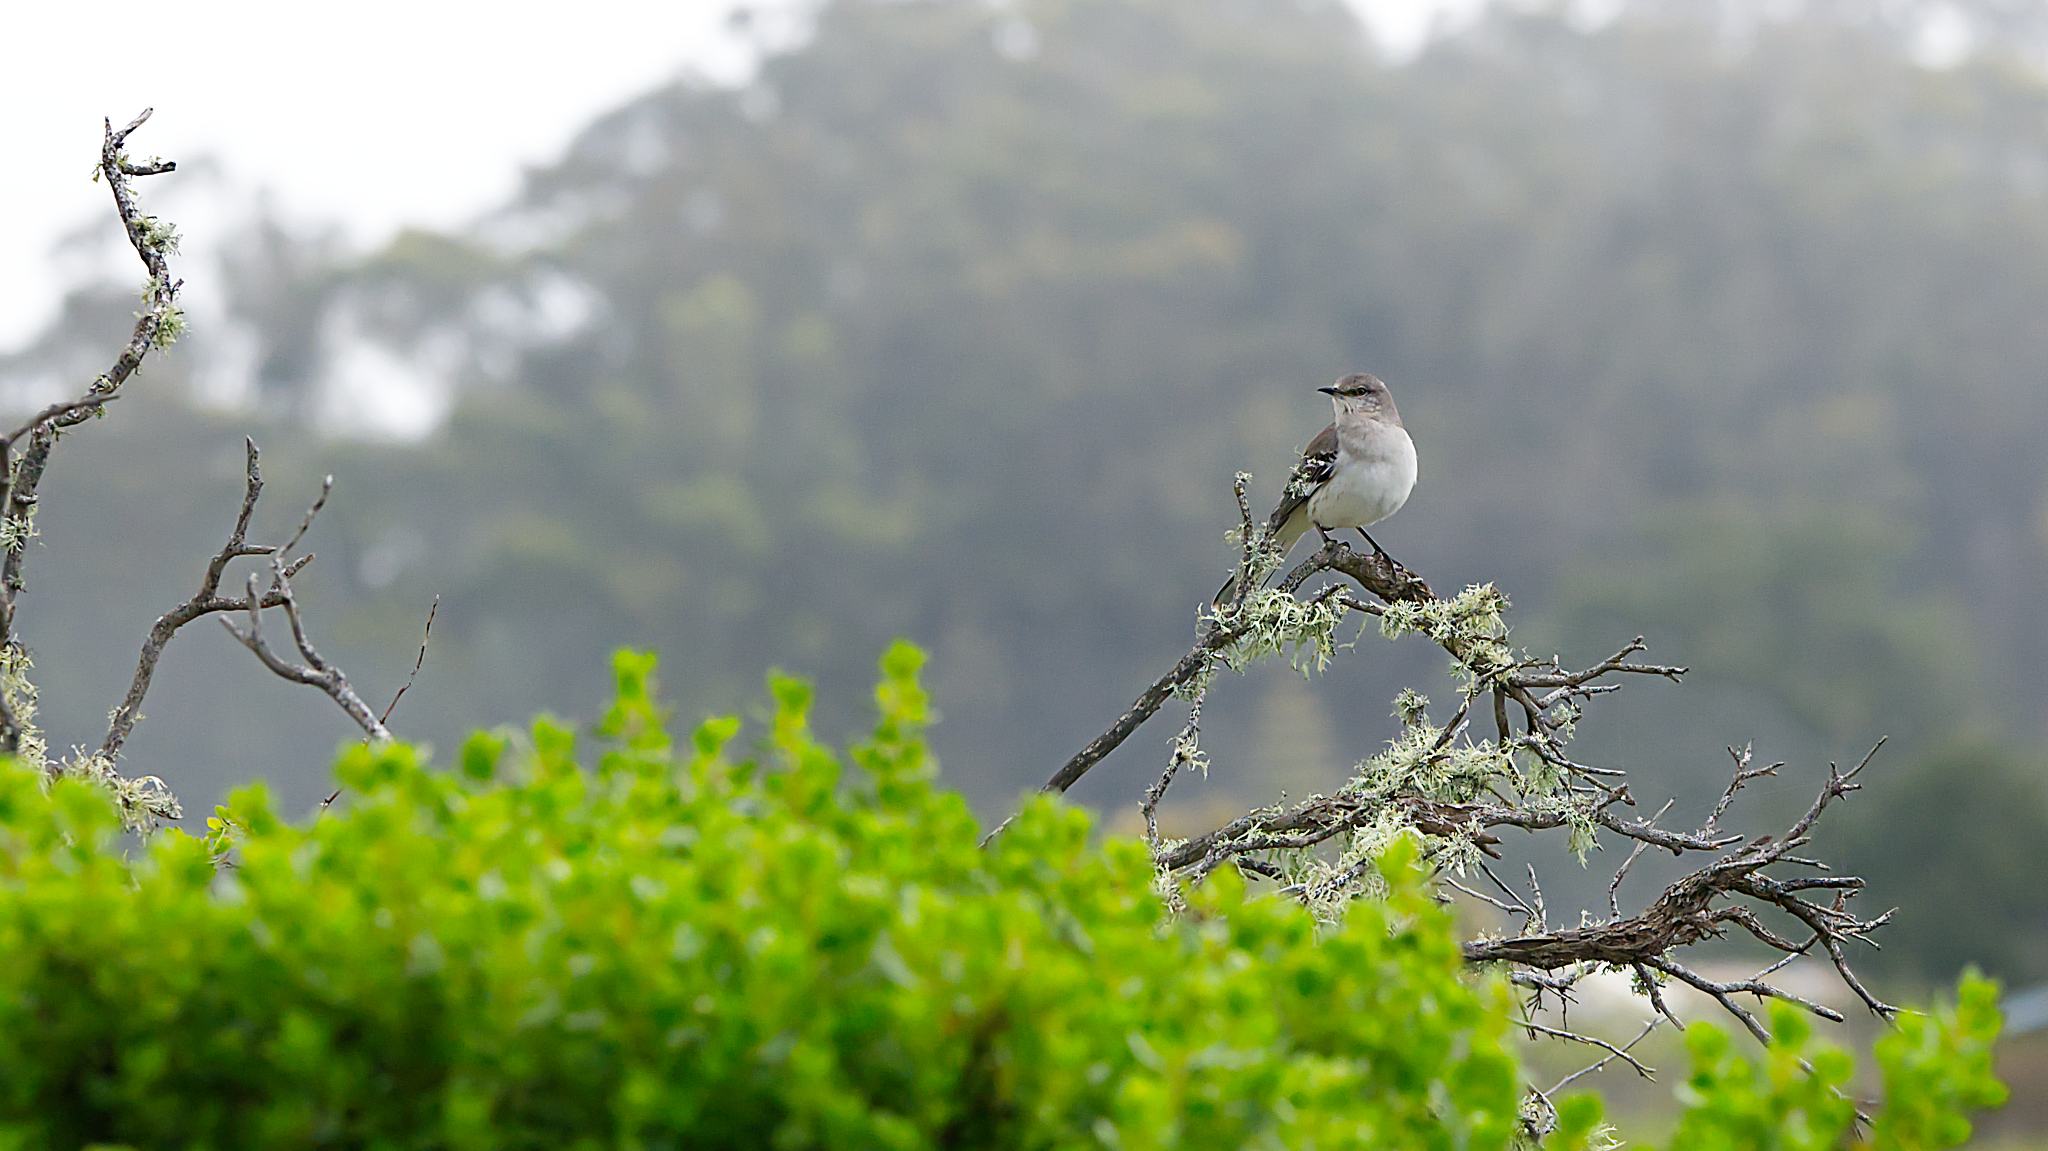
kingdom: Animalia
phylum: Chordata
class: Aves
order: Passeriformes
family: Mimidae
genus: Mimus
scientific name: Mimus polyglottos
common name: Northern mockingbird
